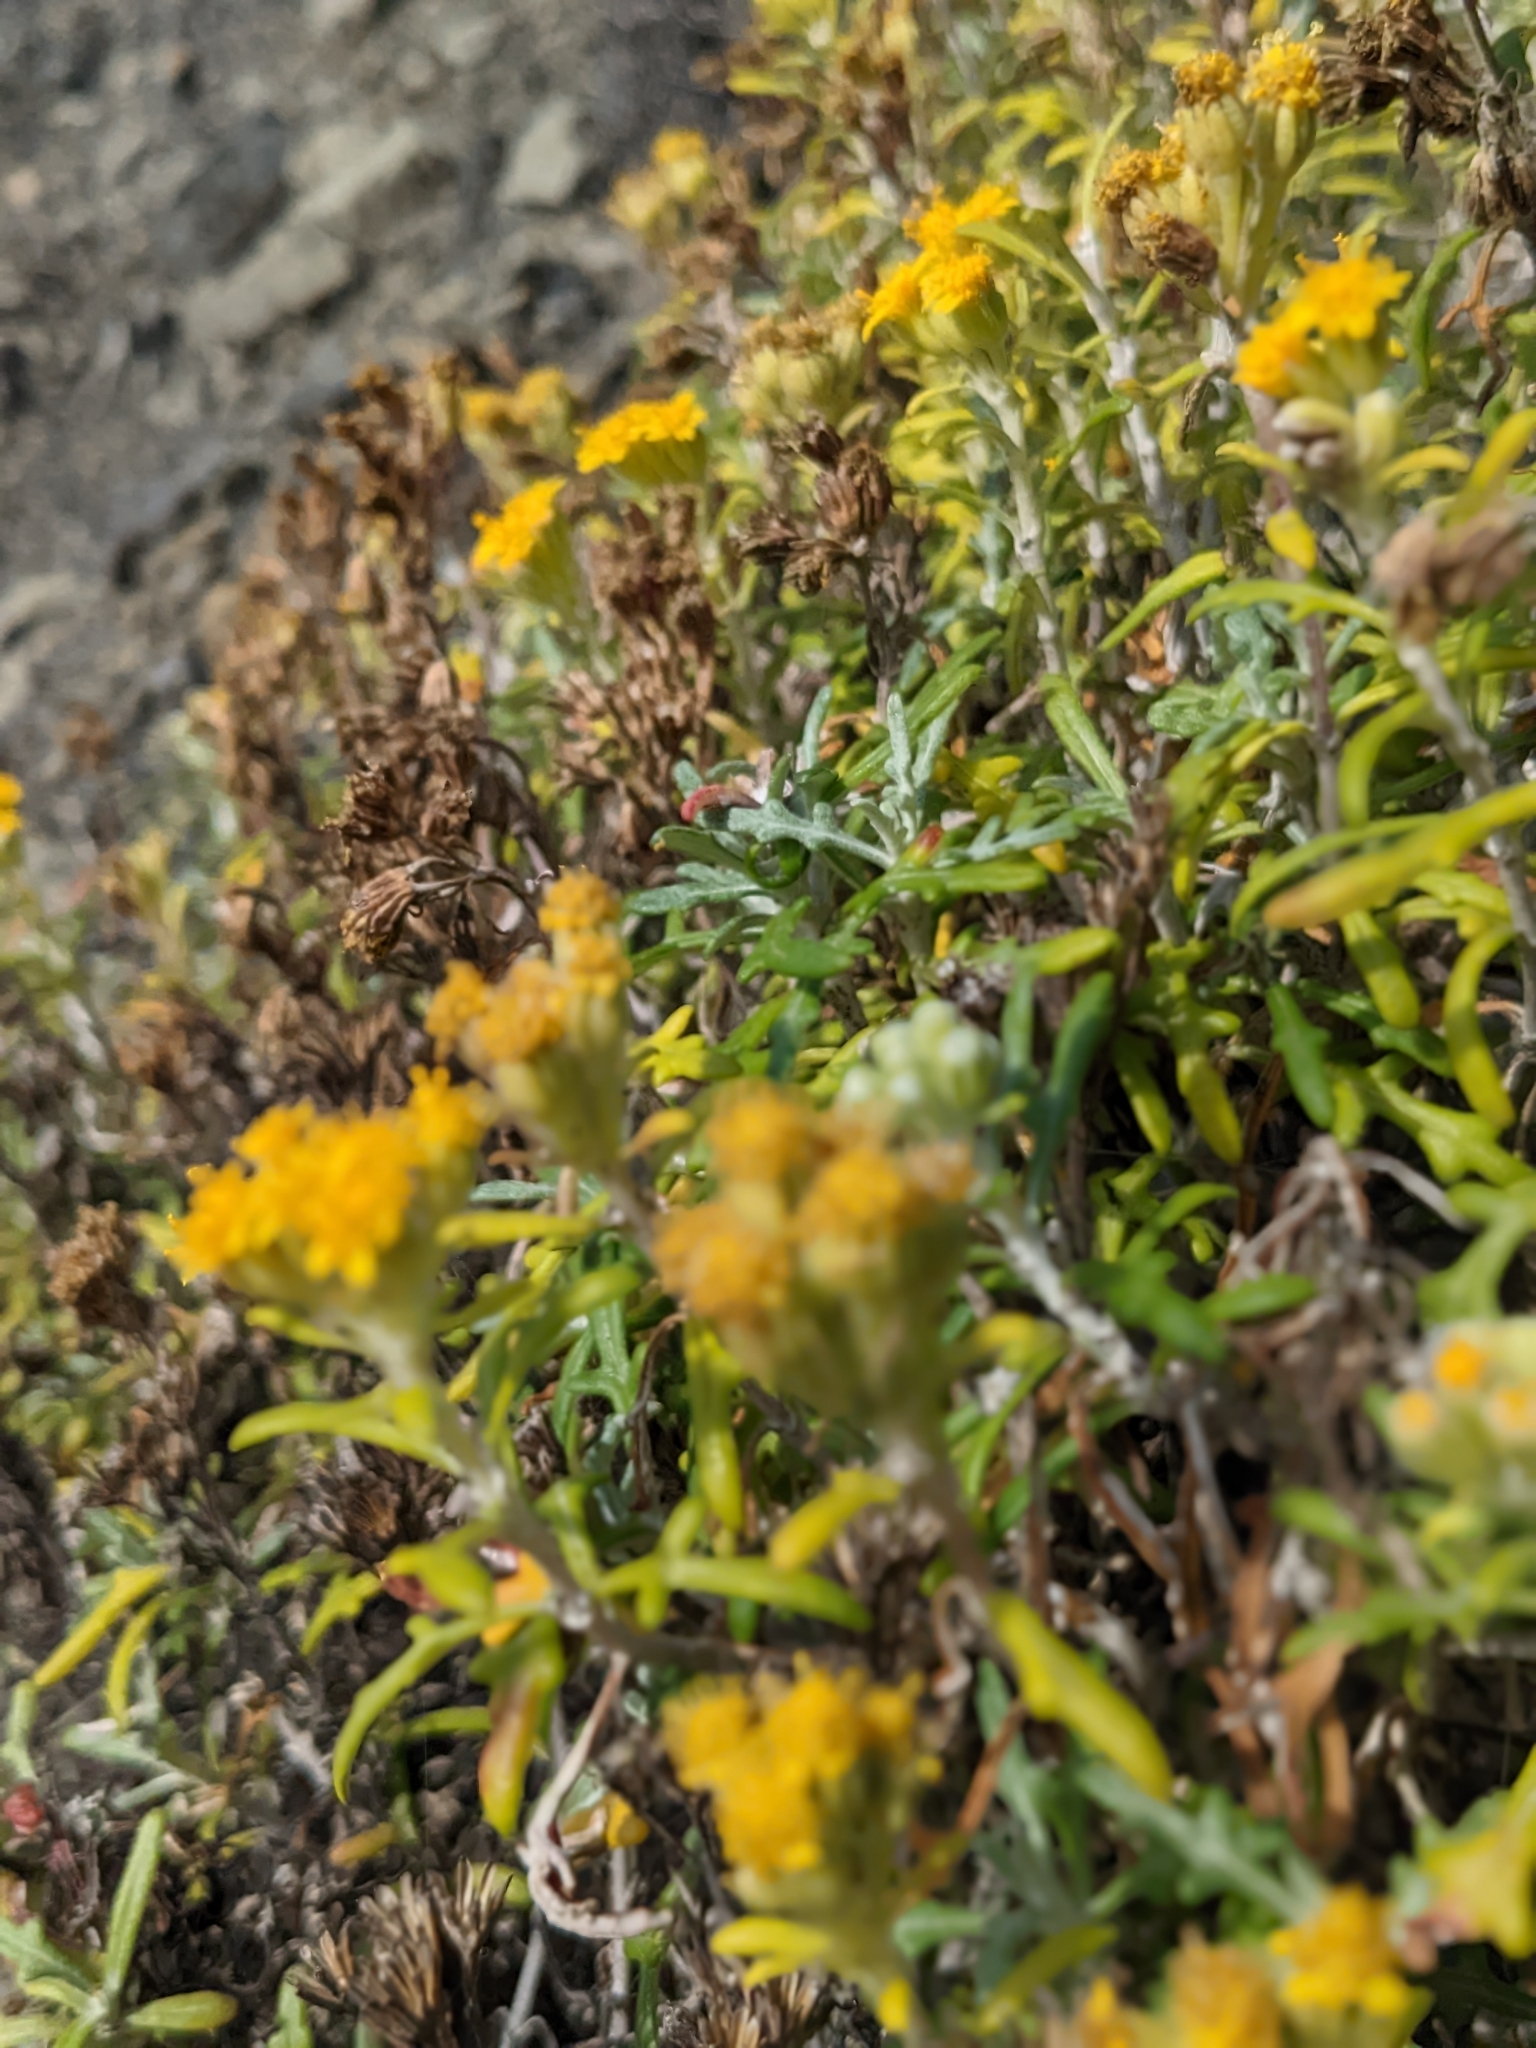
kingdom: Plantae
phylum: Tracheophyta
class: Magnoliopsida
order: Asterales
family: Asteraceae
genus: Eriophyllum
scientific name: Eriophyllum staechadifolium
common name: Lizardtail
